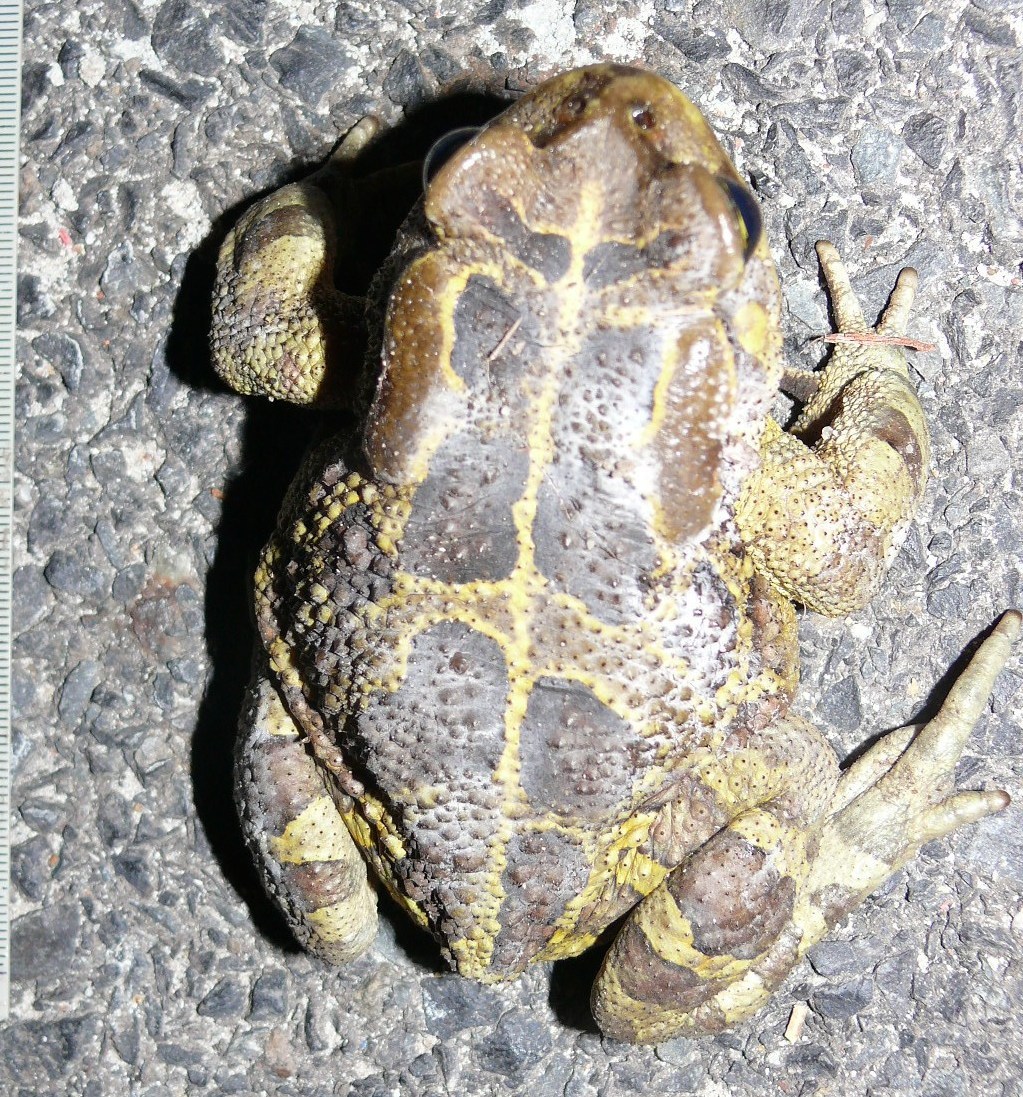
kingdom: Animalia
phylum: Chordata
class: Amphibia
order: Anura
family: Bufonidae
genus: Sclerophrys
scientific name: Sclerophrys pantherina
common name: Panther toad
